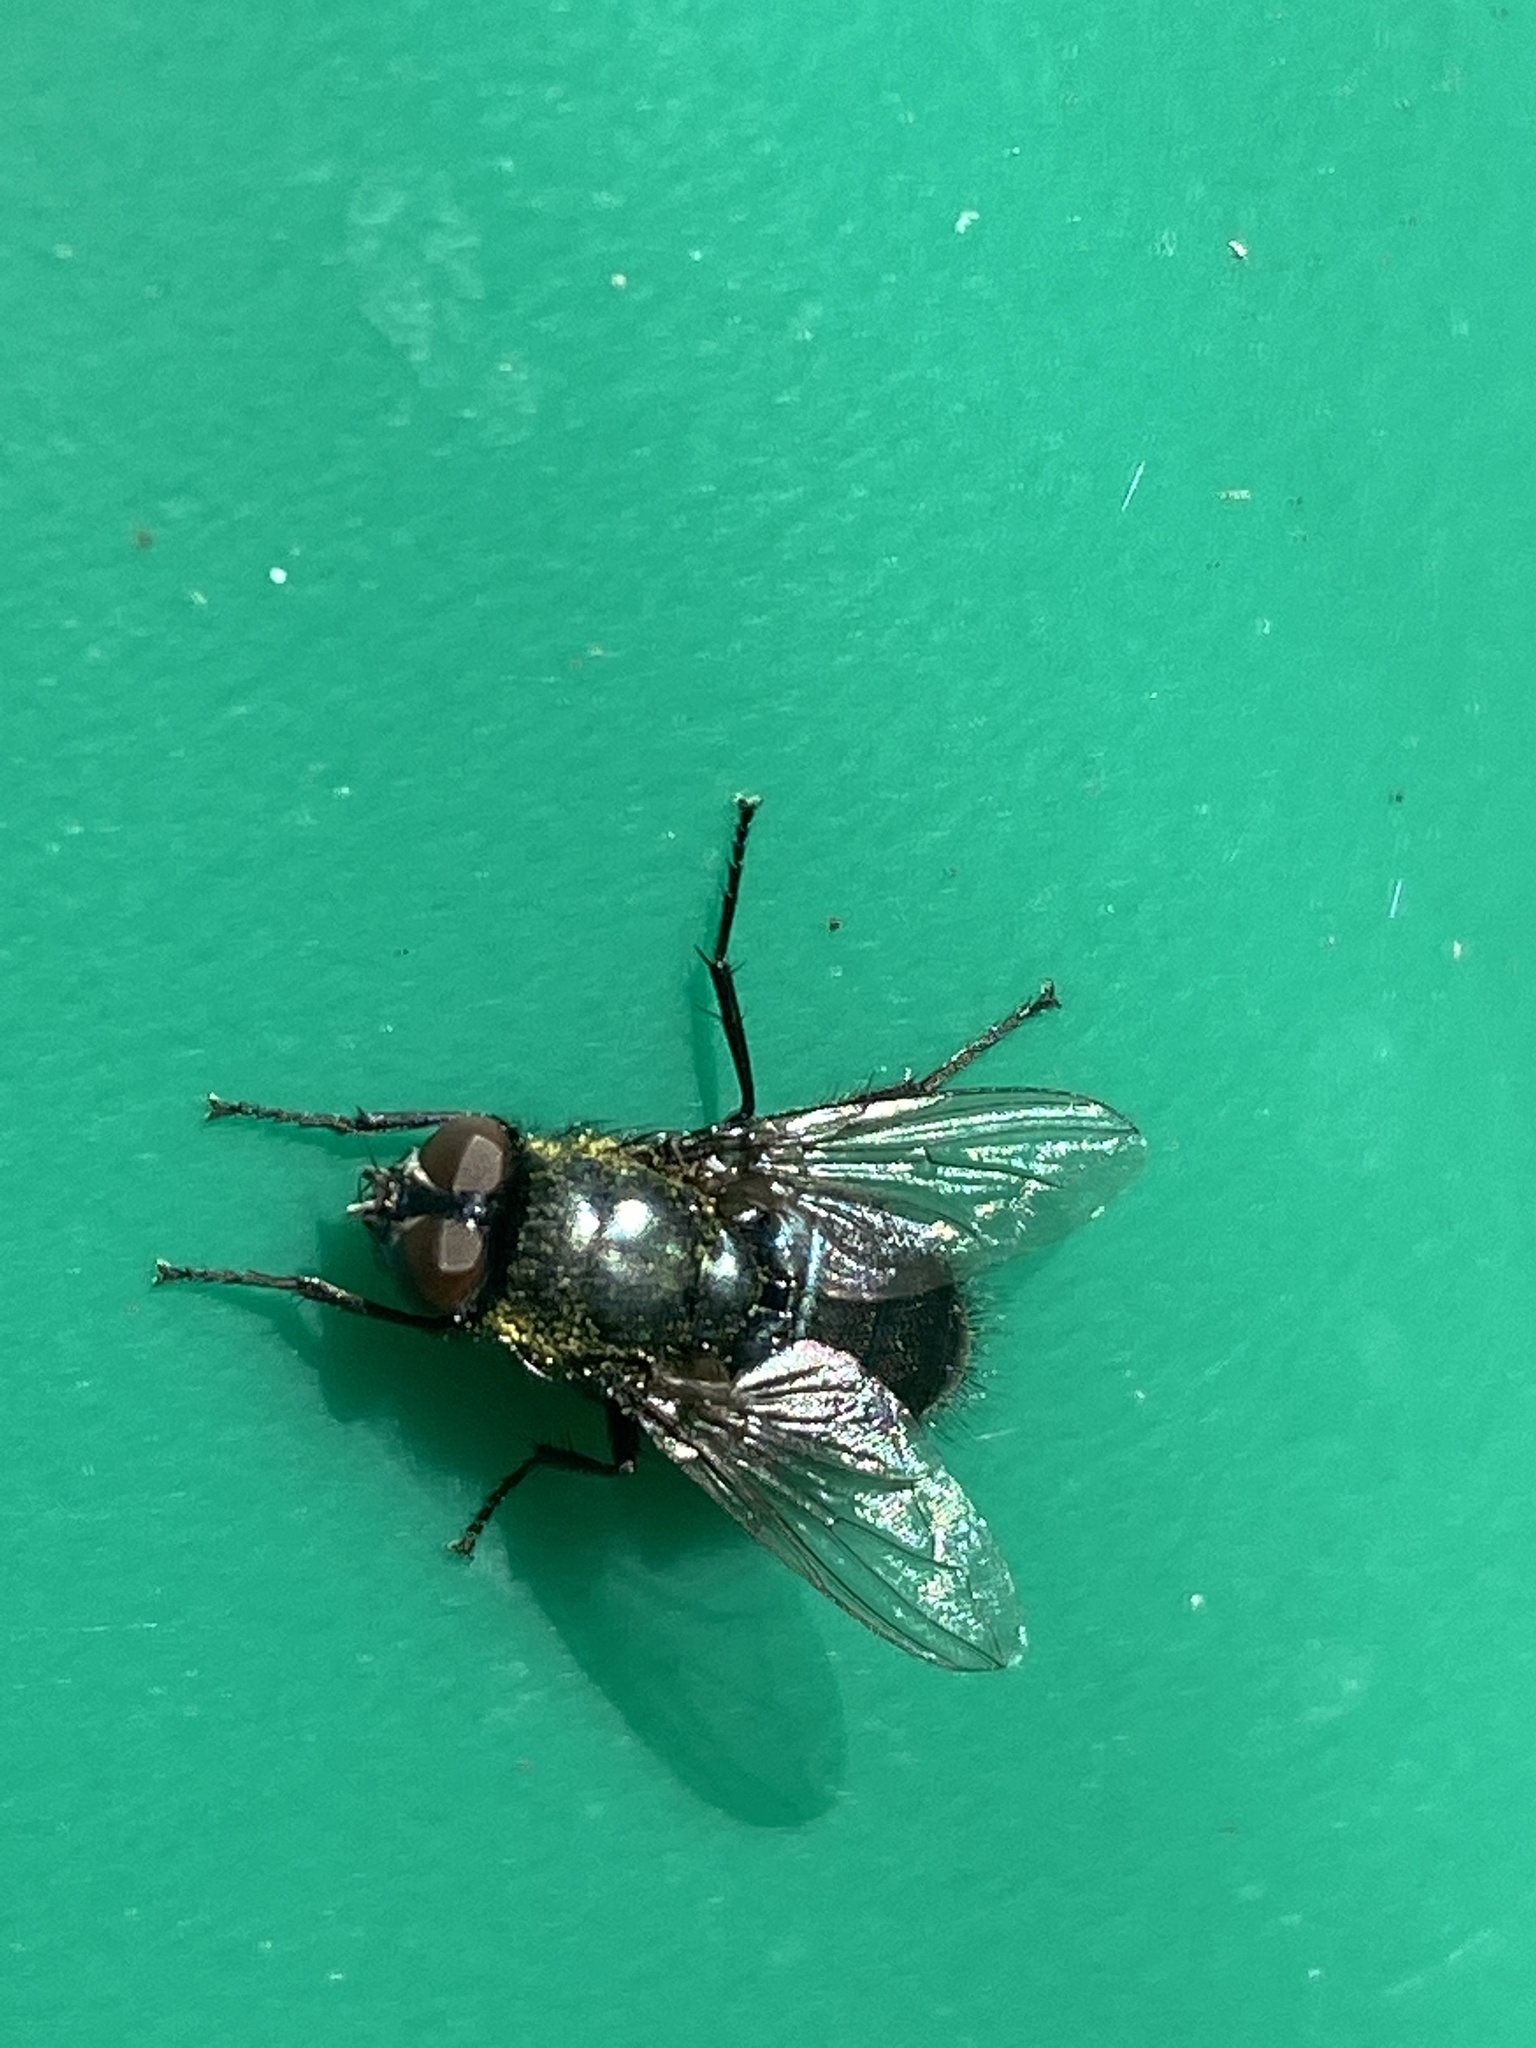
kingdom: Animalia
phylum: Arthropoda
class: Insecta
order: Diptera
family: Calliphoridae
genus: Protophormia
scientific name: Protophormia terraenovae
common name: Blackbottle
